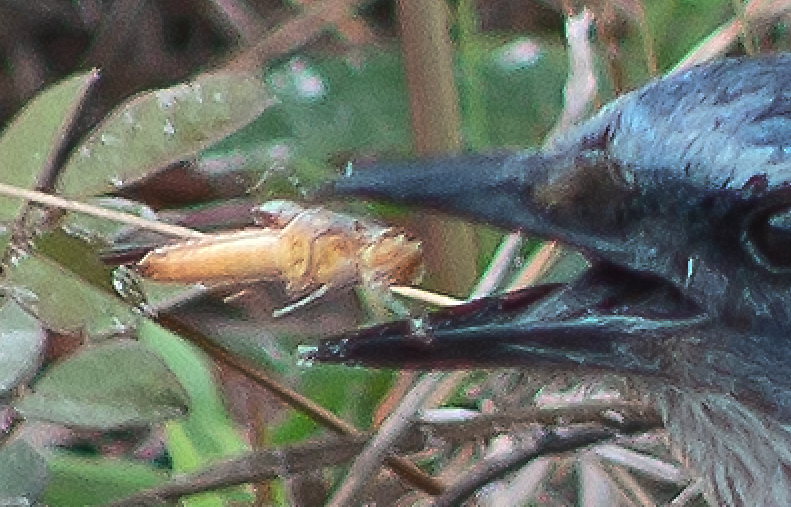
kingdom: Animalia
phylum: Arthropoda
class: Insecta
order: Orthoptera
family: Acrididae
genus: Schistocerca
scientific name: Schistocerca damnifica
